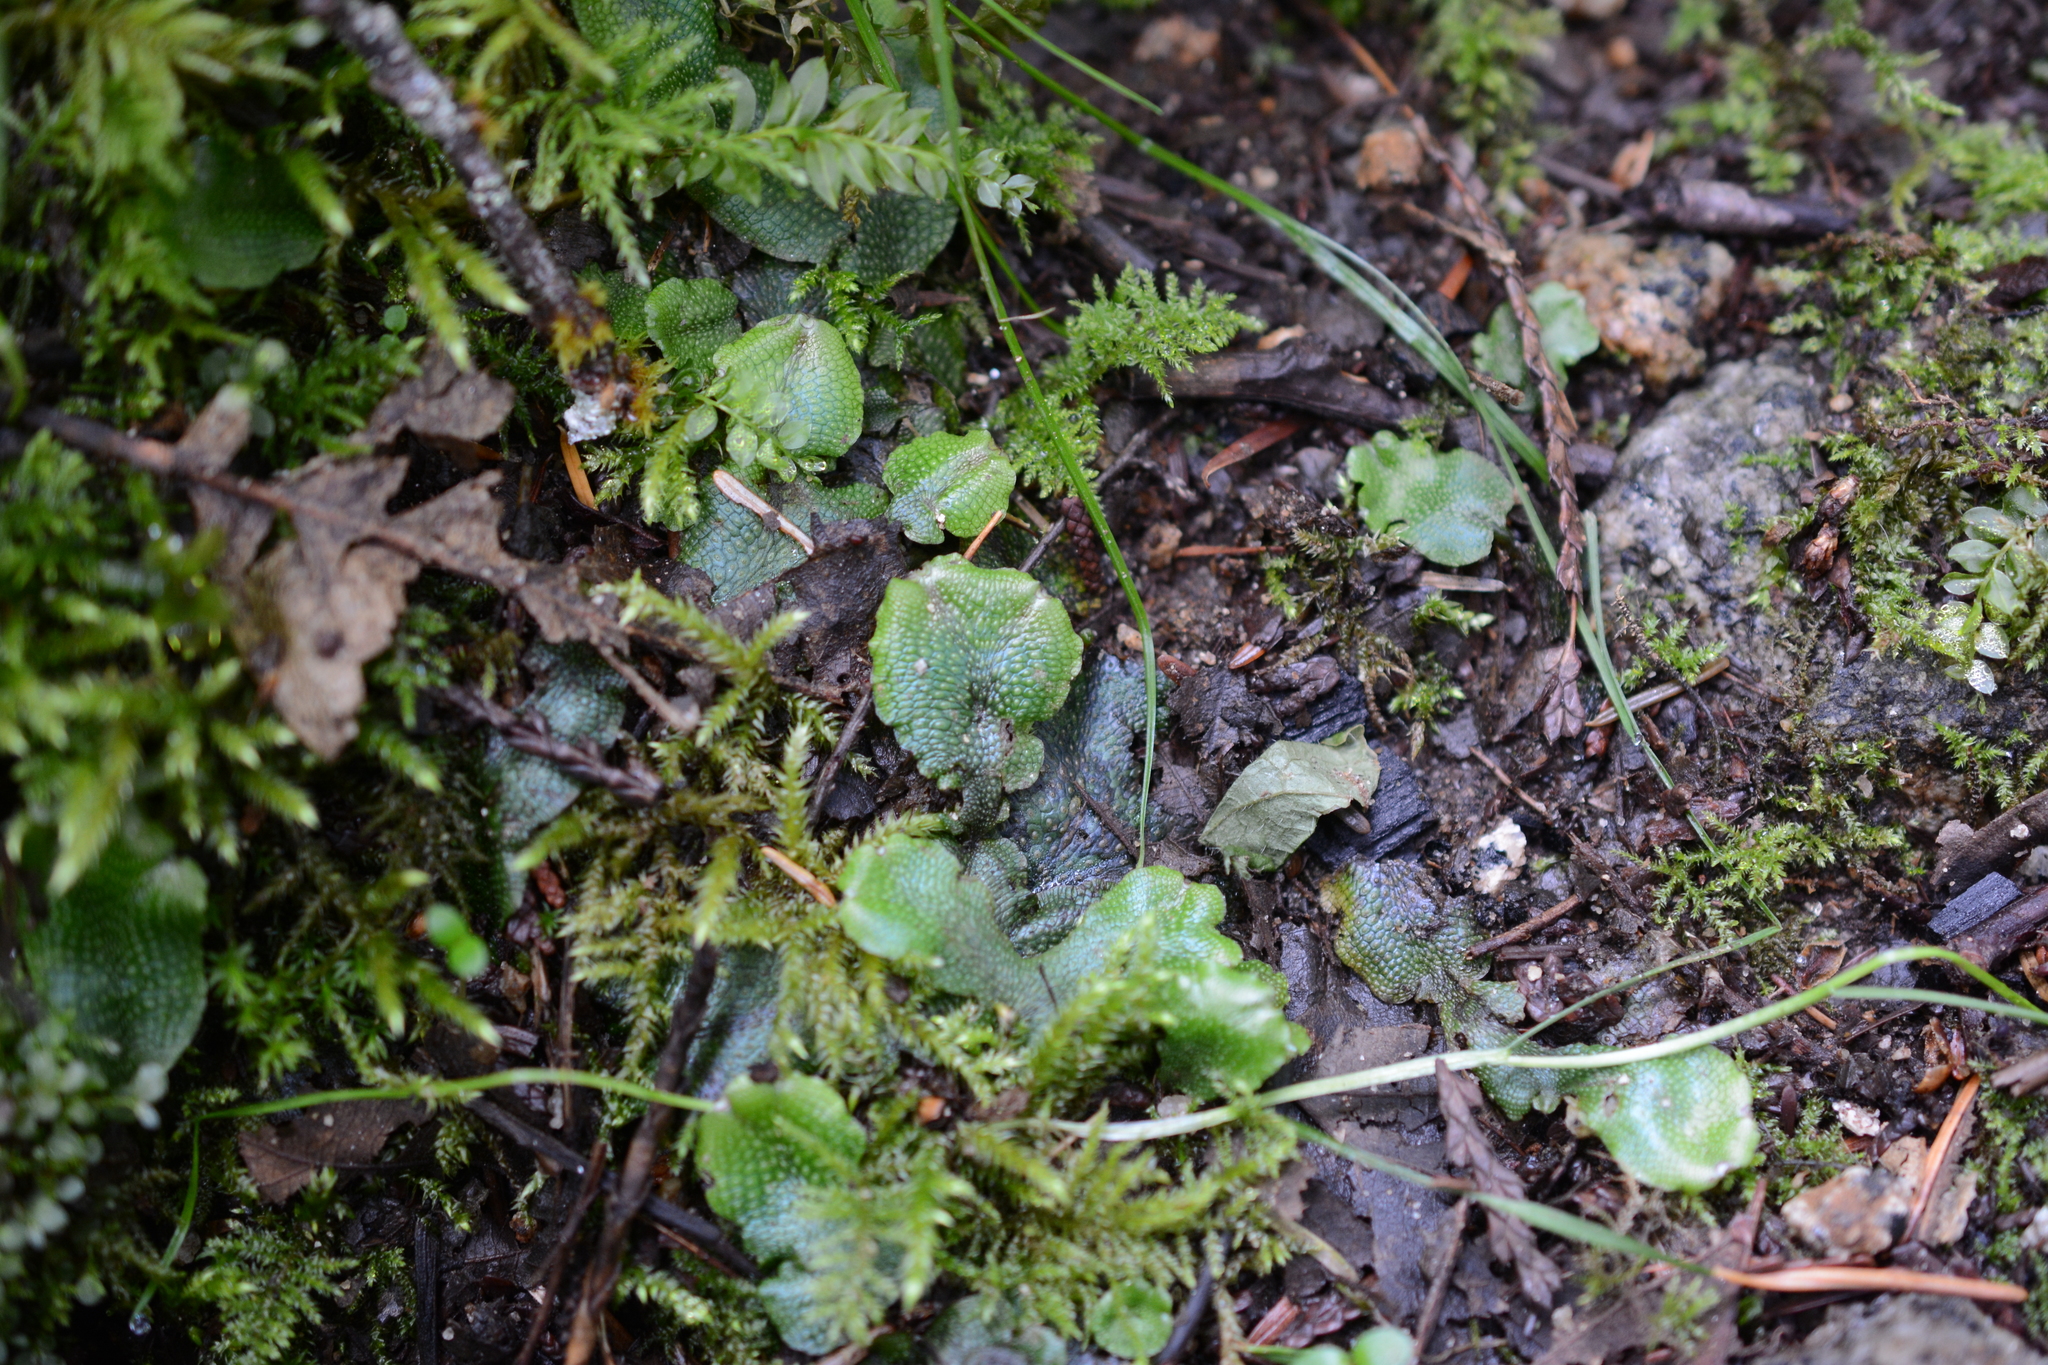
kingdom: Plantae
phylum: Marchantiophyta
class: Marchantiopsida
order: Marchantiales
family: Conocephalaceae
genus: Conocephalum
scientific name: Conocephalum salebrosum
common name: Cat-tongue liverwort
